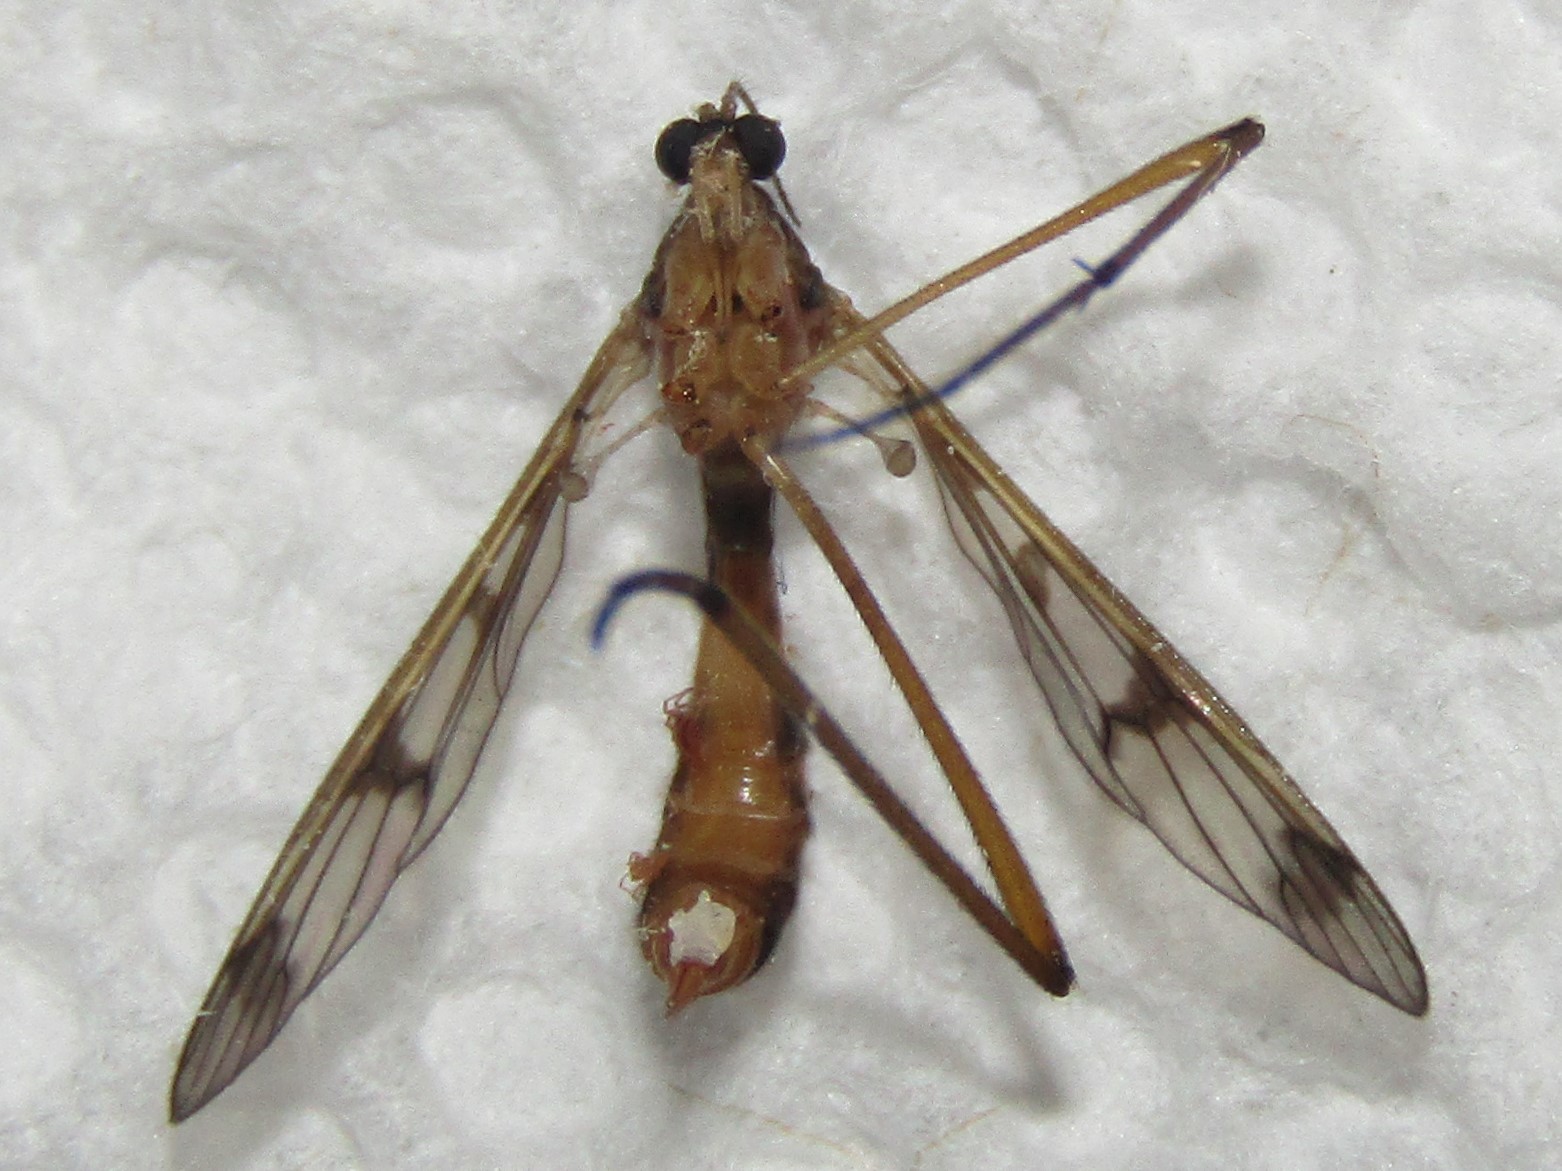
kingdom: Animalia
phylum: Arthropoda
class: Insecta
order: Diptera
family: Ptychopteridae
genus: Ptychoptera
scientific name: Ptychoptera quadrifasciata
